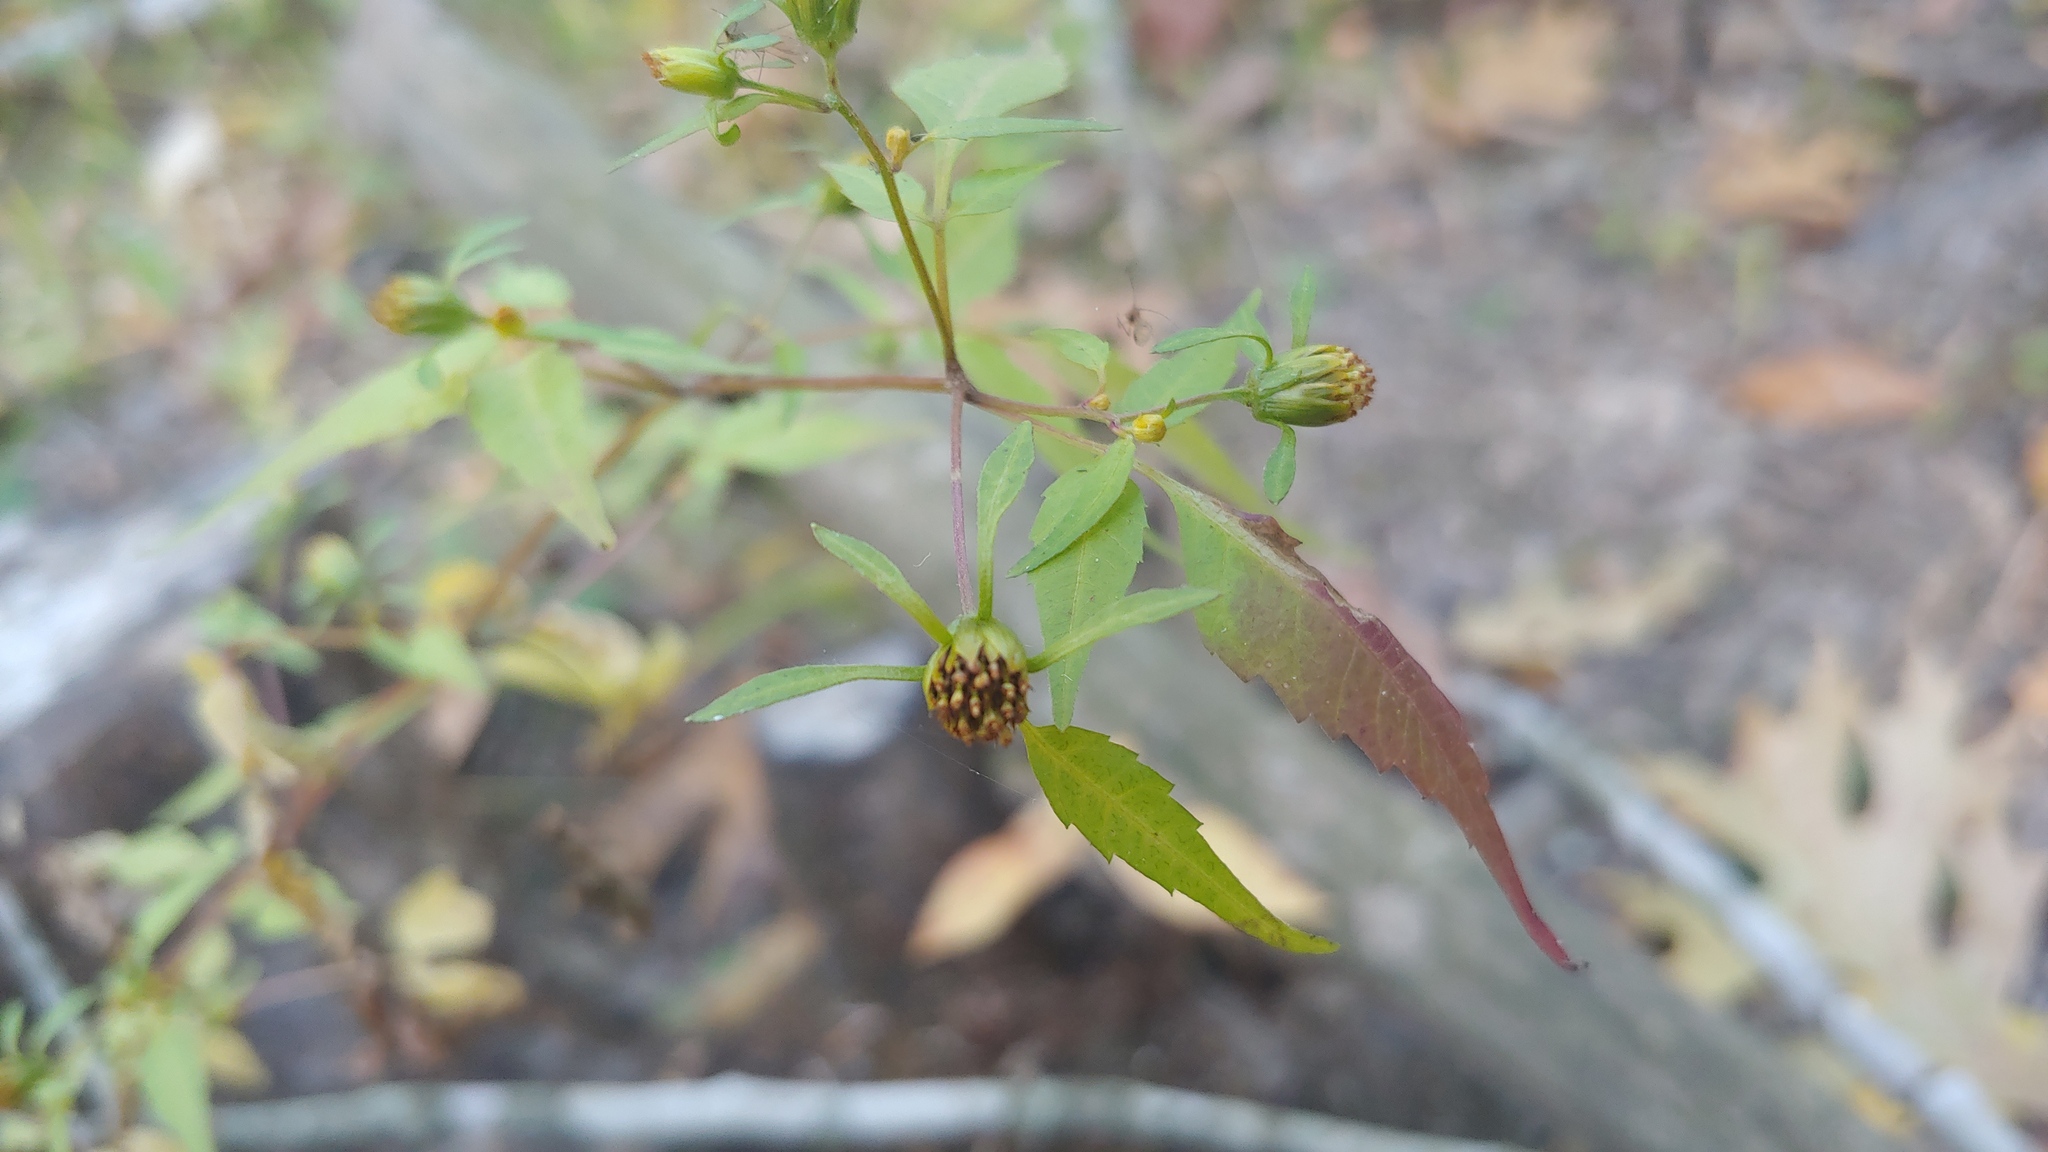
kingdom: Plantae
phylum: Tracheophyta
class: Magnoliopsida
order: Asterales
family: Asteraceae
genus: Bidens
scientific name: Bidens discoidea
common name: Discoide beggarticks
